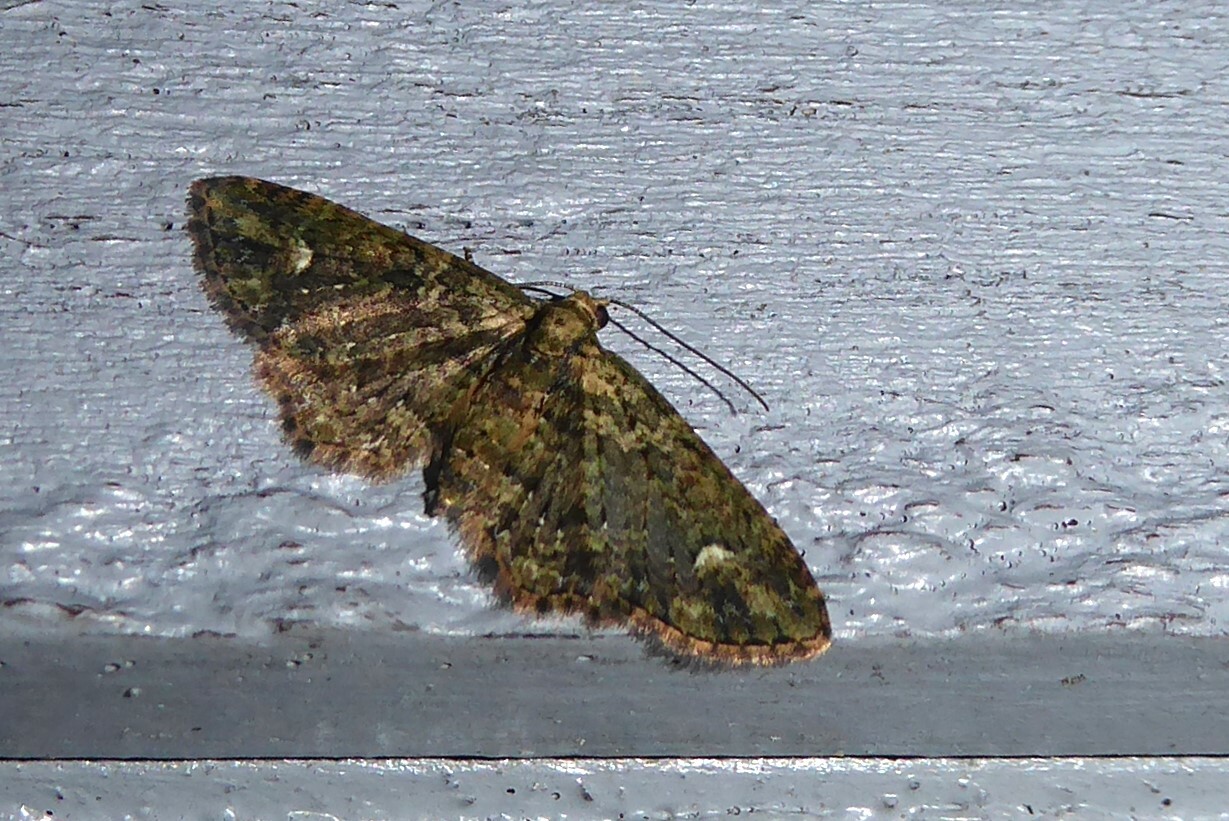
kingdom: Animalia
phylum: Arthropoda
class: Insecta
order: Lepidoptera
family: Geometridae
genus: Pasiphilodes
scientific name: Pasiphilodes testulata
